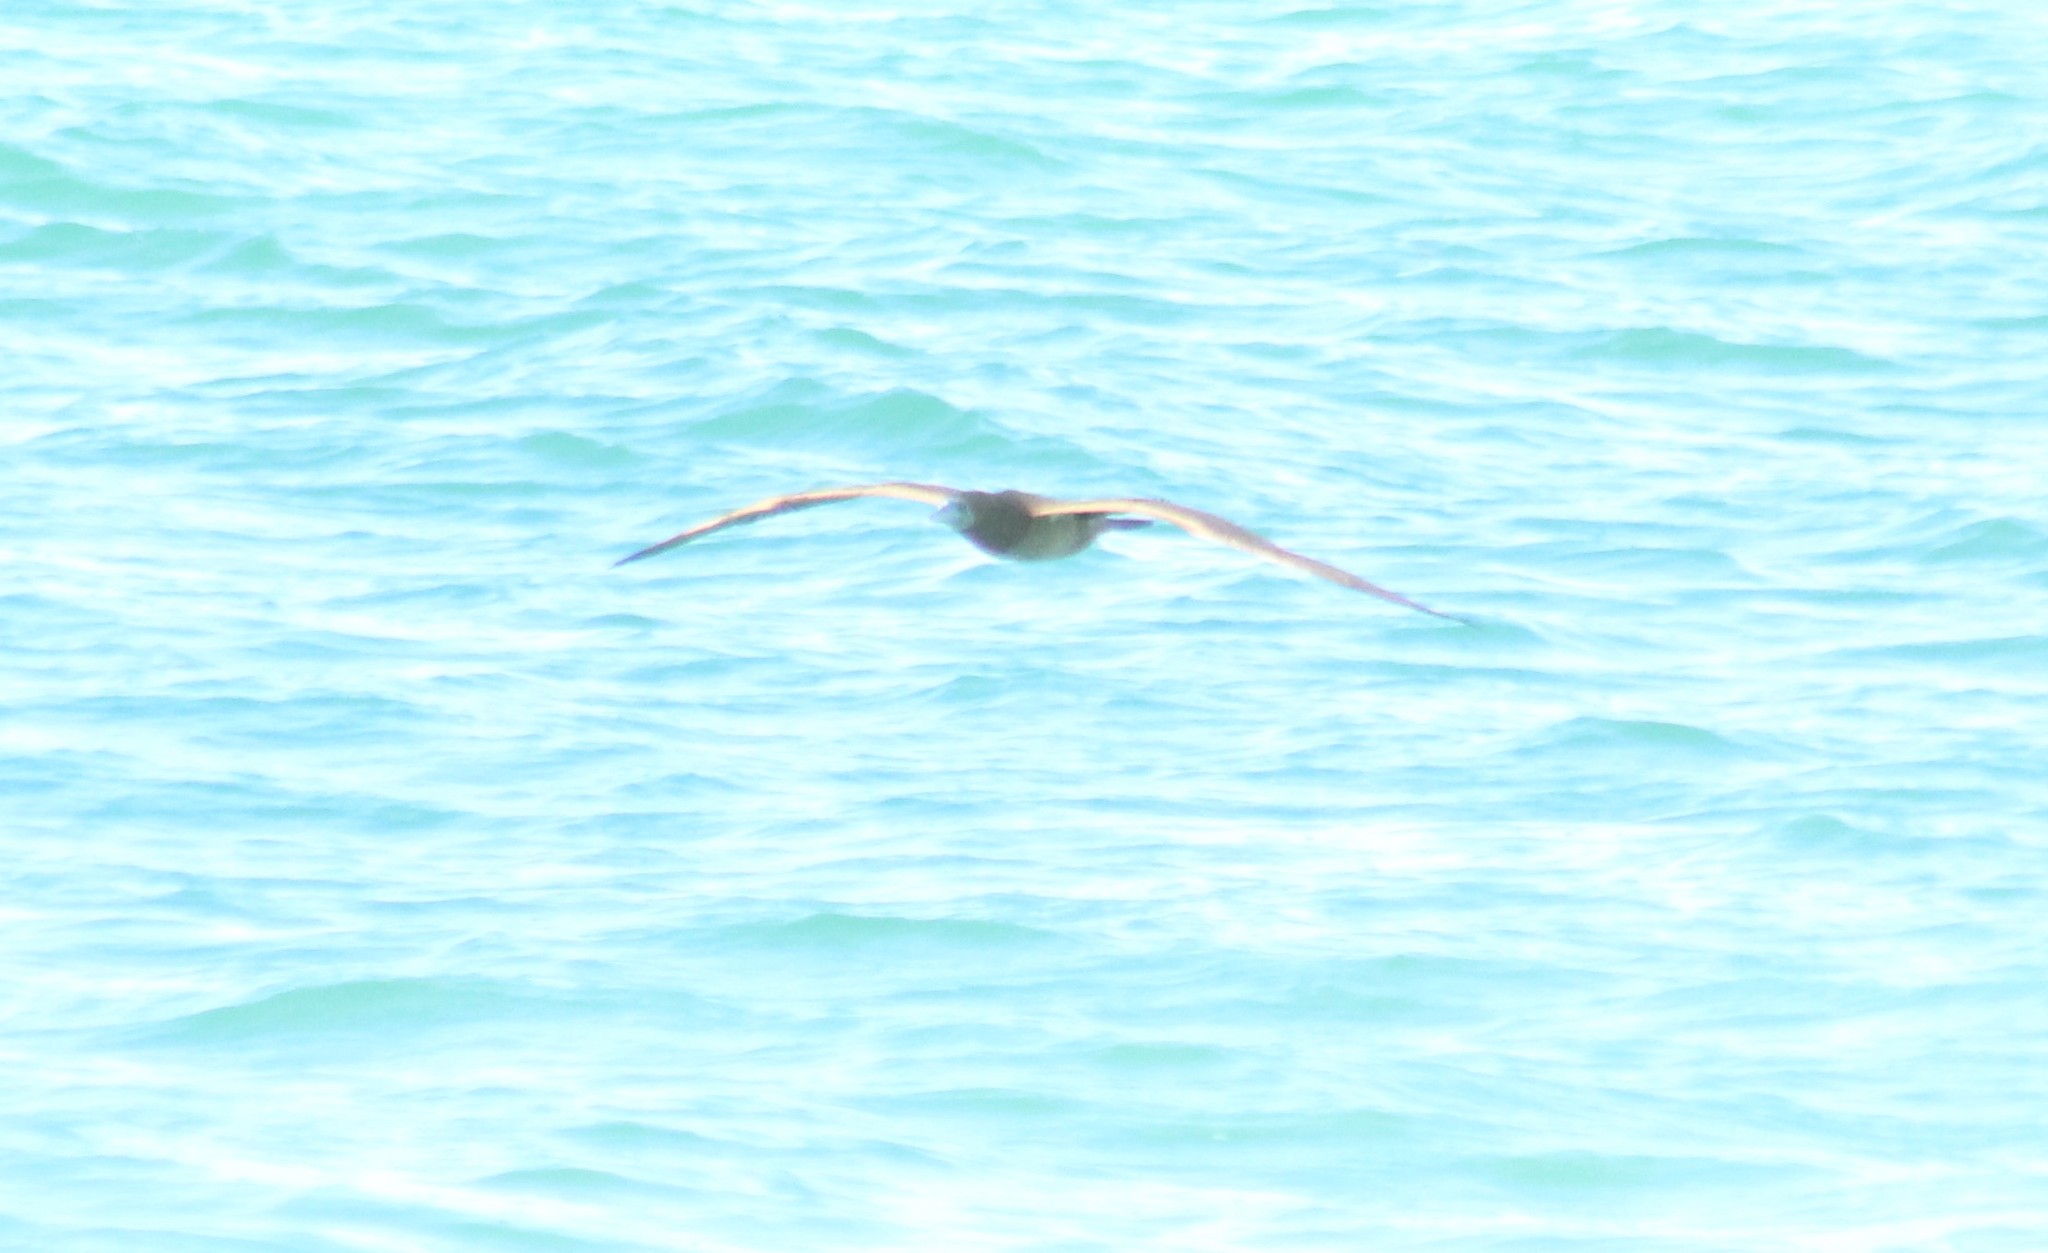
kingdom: Animalia
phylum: Chordata
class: Aves
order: Suliformes
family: Sulidae
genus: Sula
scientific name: Sula leucogaster
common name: Brown booby
